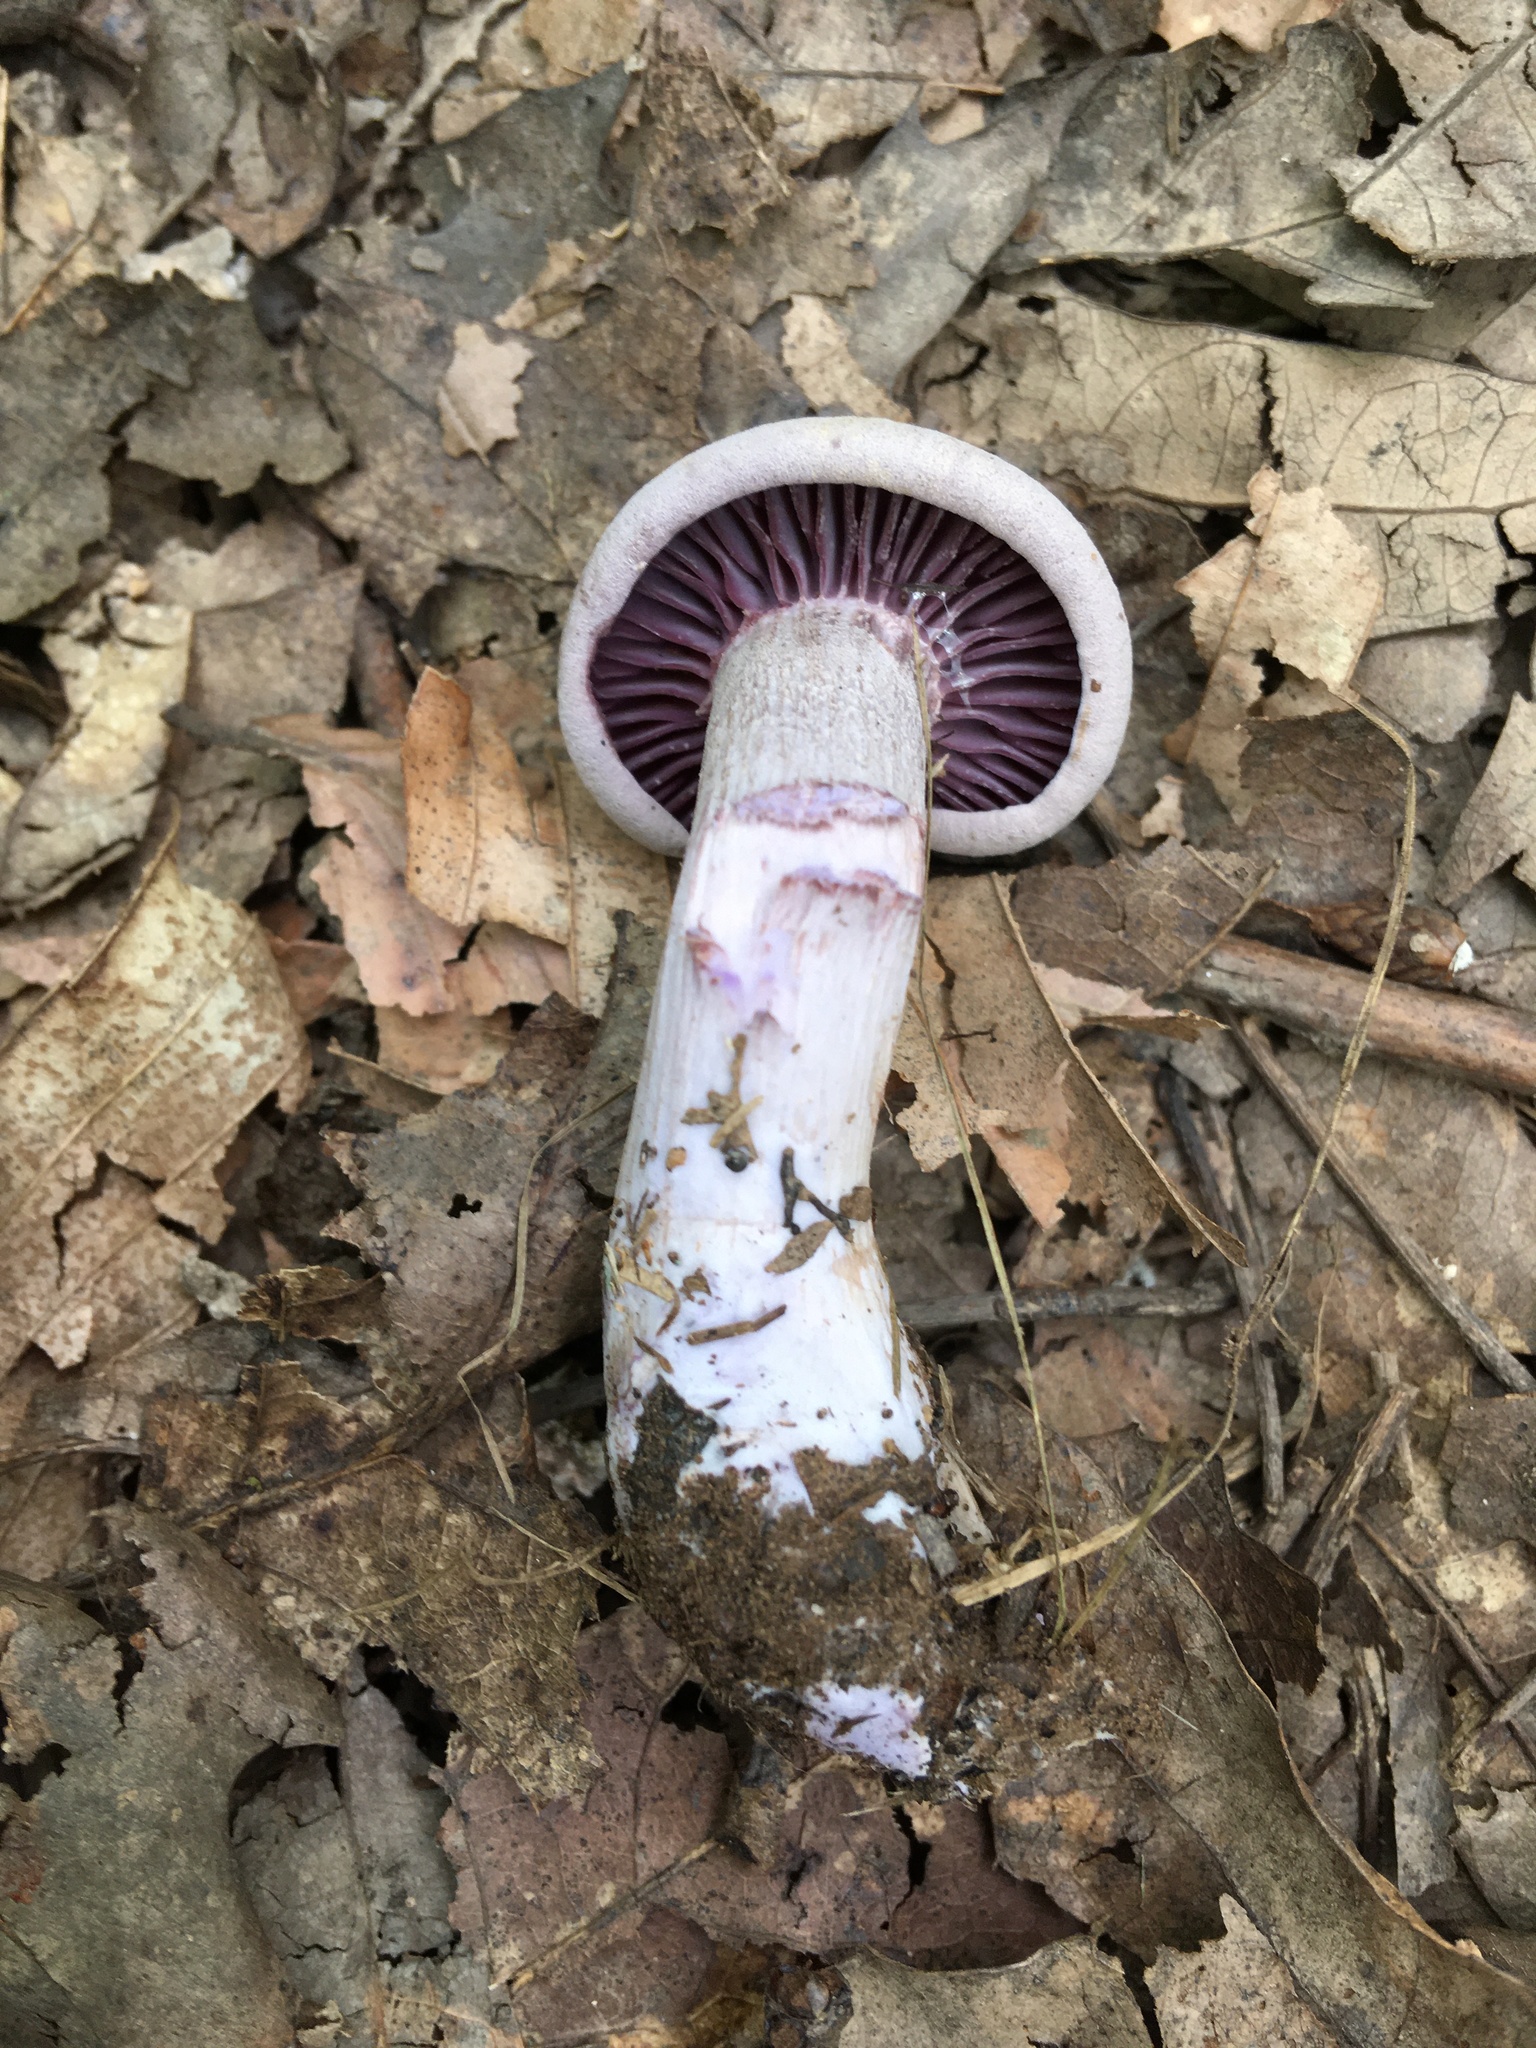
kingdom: Fungi
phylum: Basidiomycota
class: Agaricomycetes
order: Agaricales
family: Hydnangiaceae
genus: Laccaria
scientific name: Laccaria ochropurpurea
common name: Purple laccaria
